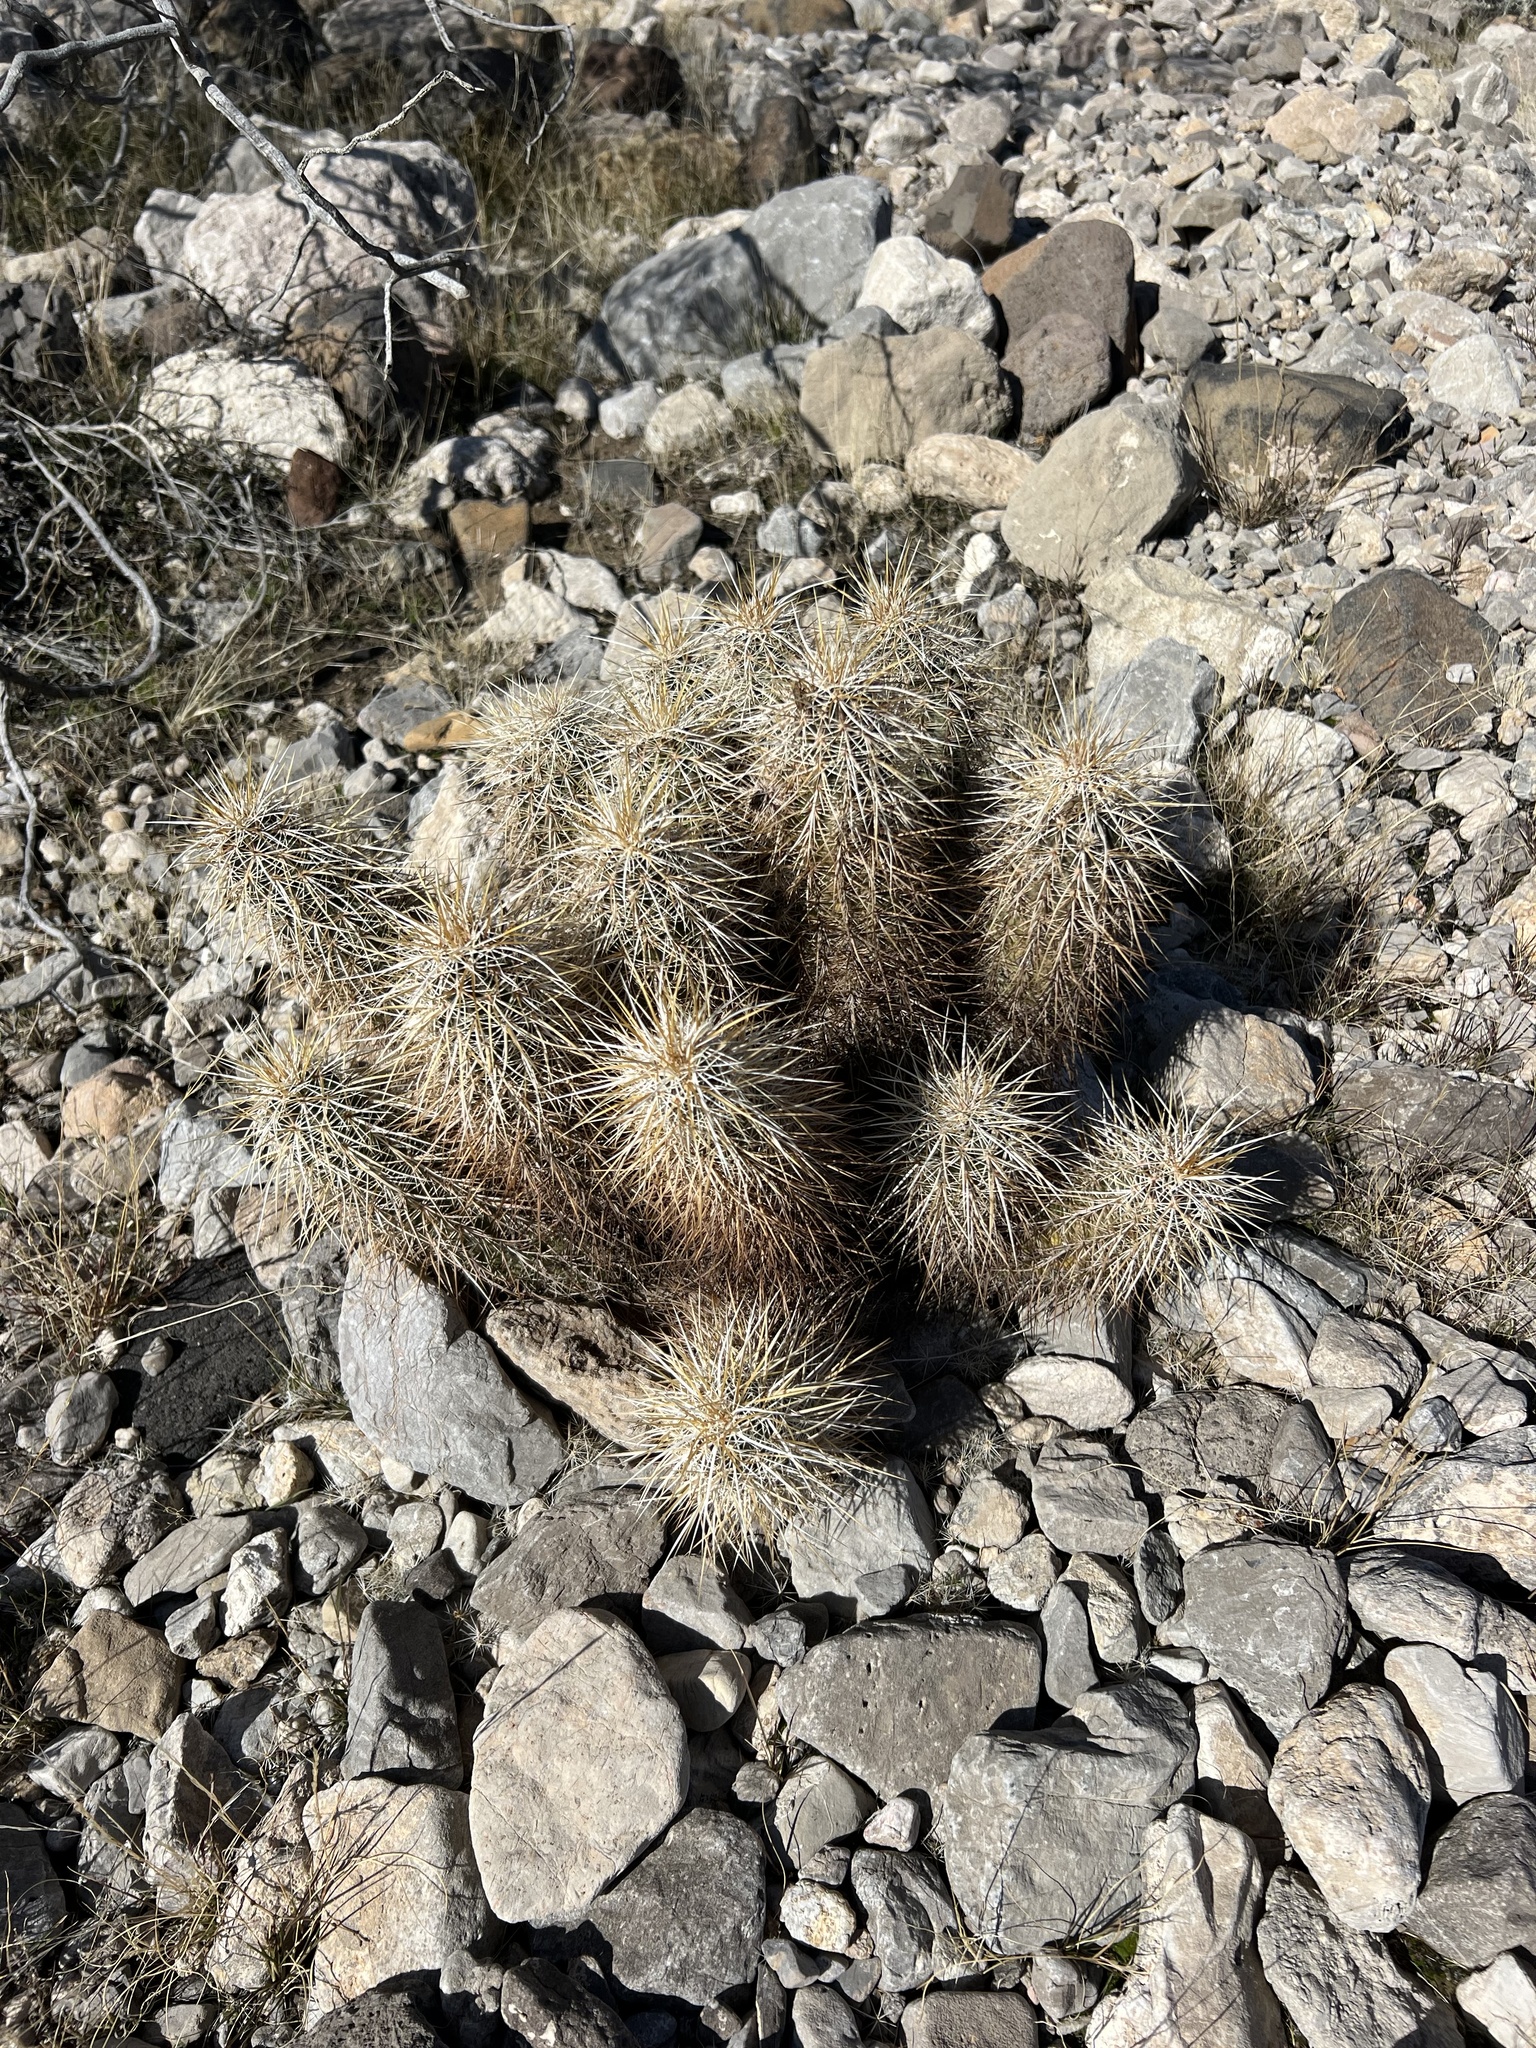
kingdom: Plantae
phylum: Tracheophyta
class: Magnoliopsida
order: Caryophyllales
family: Cactaceae
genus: Echinocereus
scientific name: Echinocereus engelmannii
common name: Engelmann's hedgehog cactus
